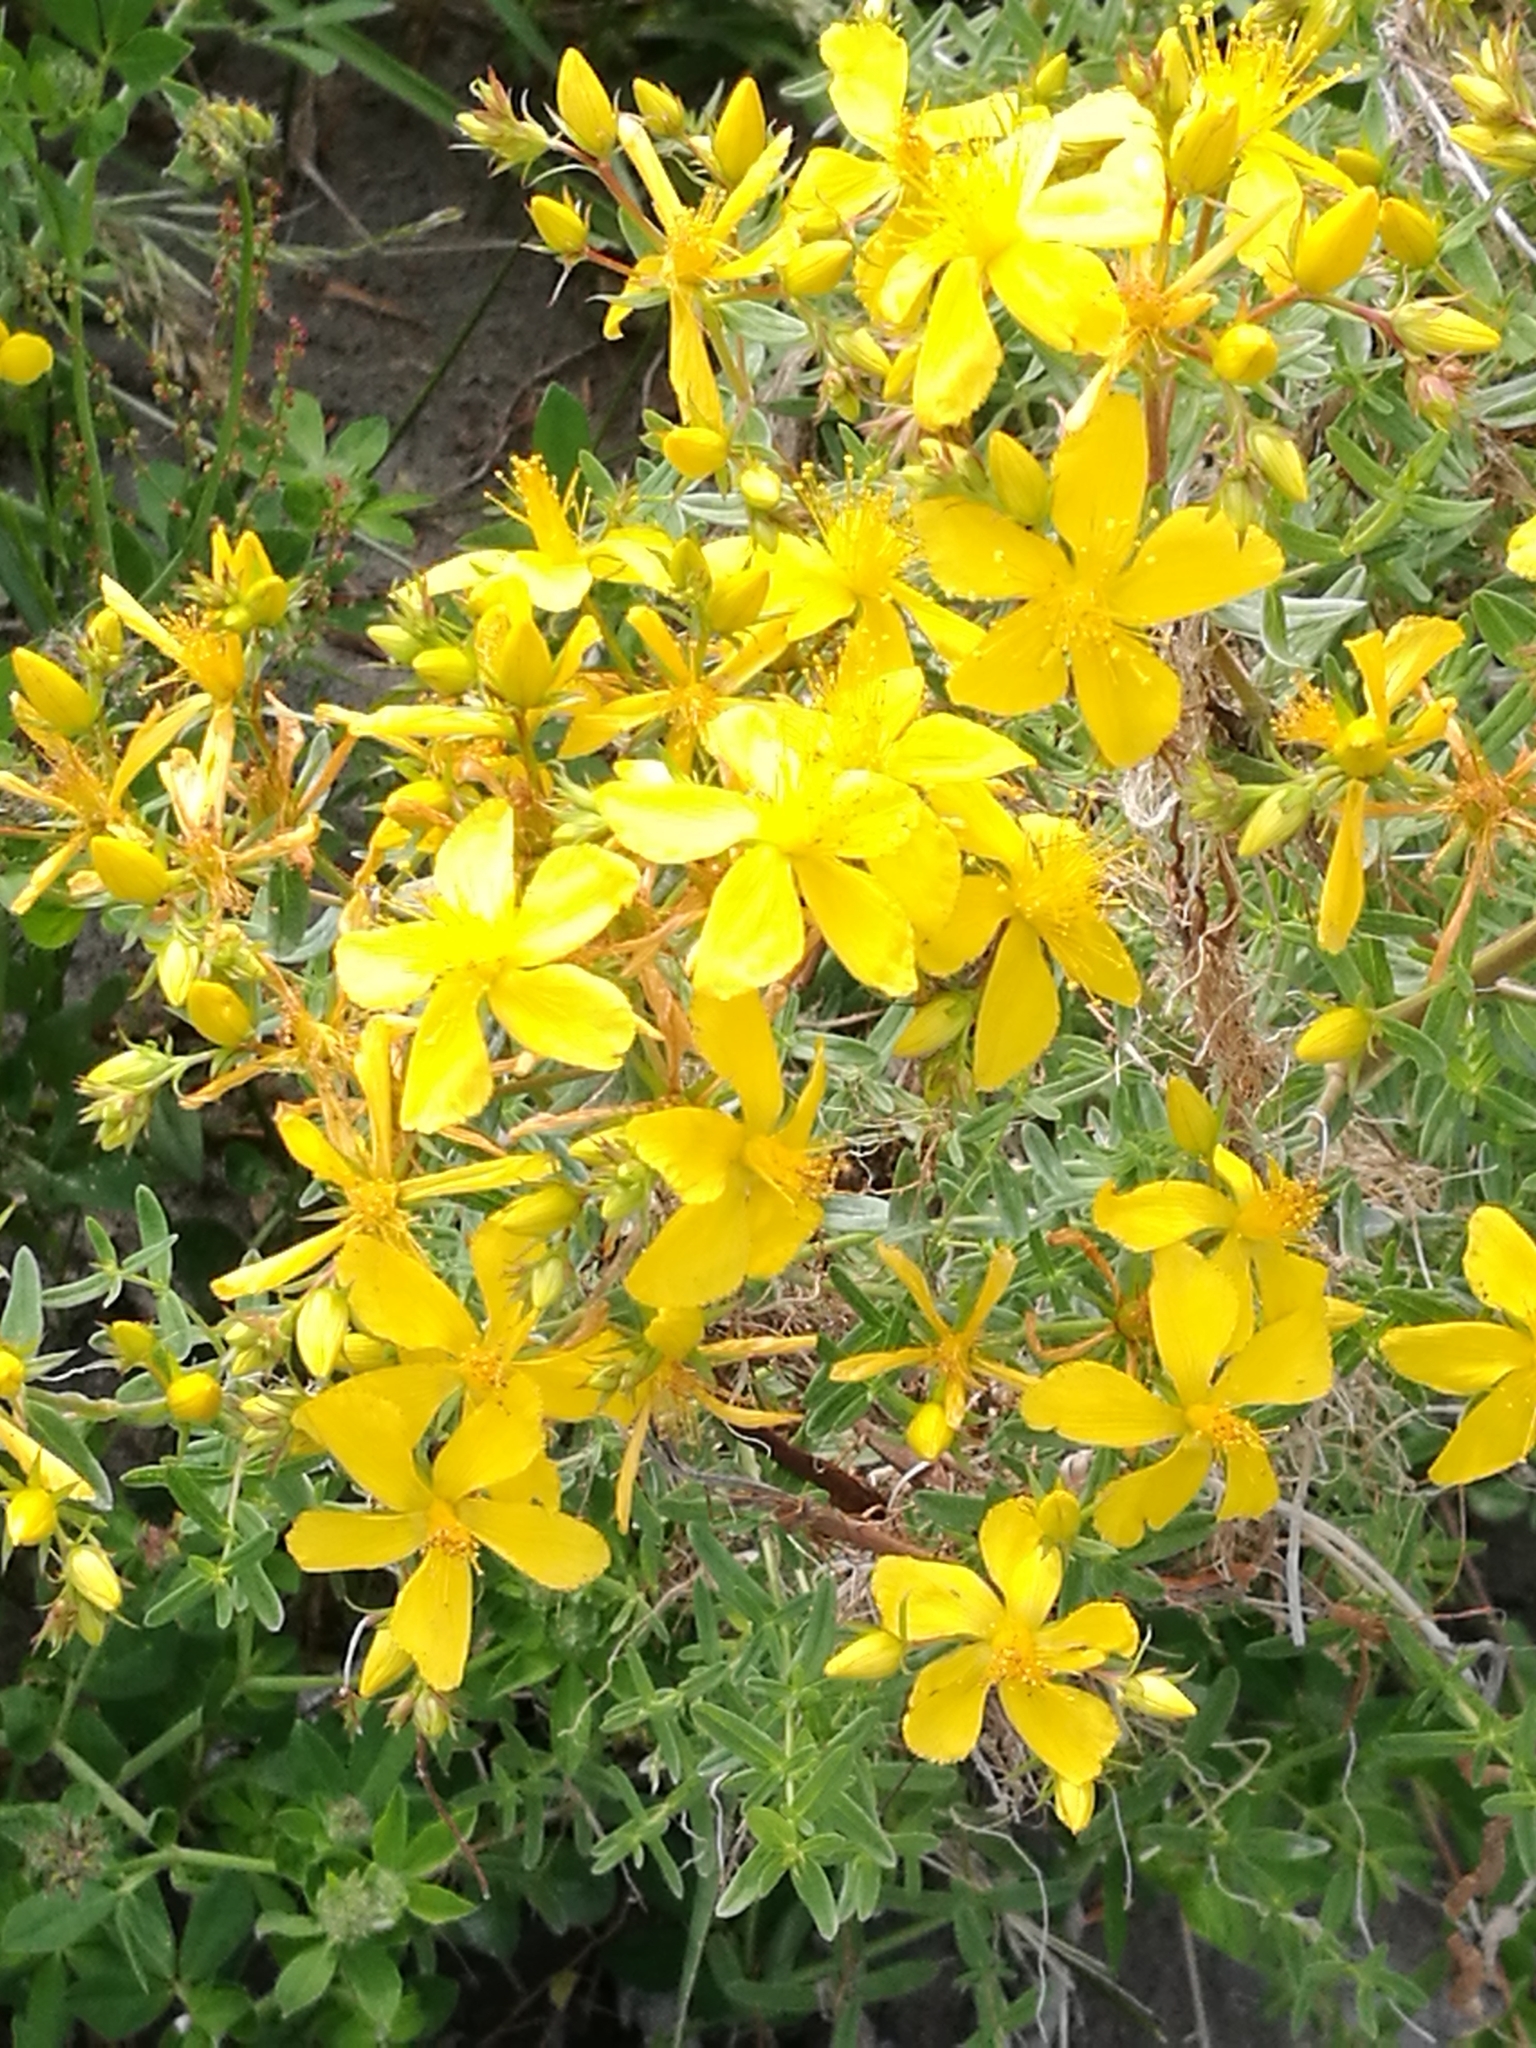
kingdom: Plantae
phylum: Tracheophyta
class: Magnoliopsida
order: Malpighiales
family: Hypericaceae
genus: Hypericum
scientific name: Hypericum perforatum
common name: Common st. johnswort
